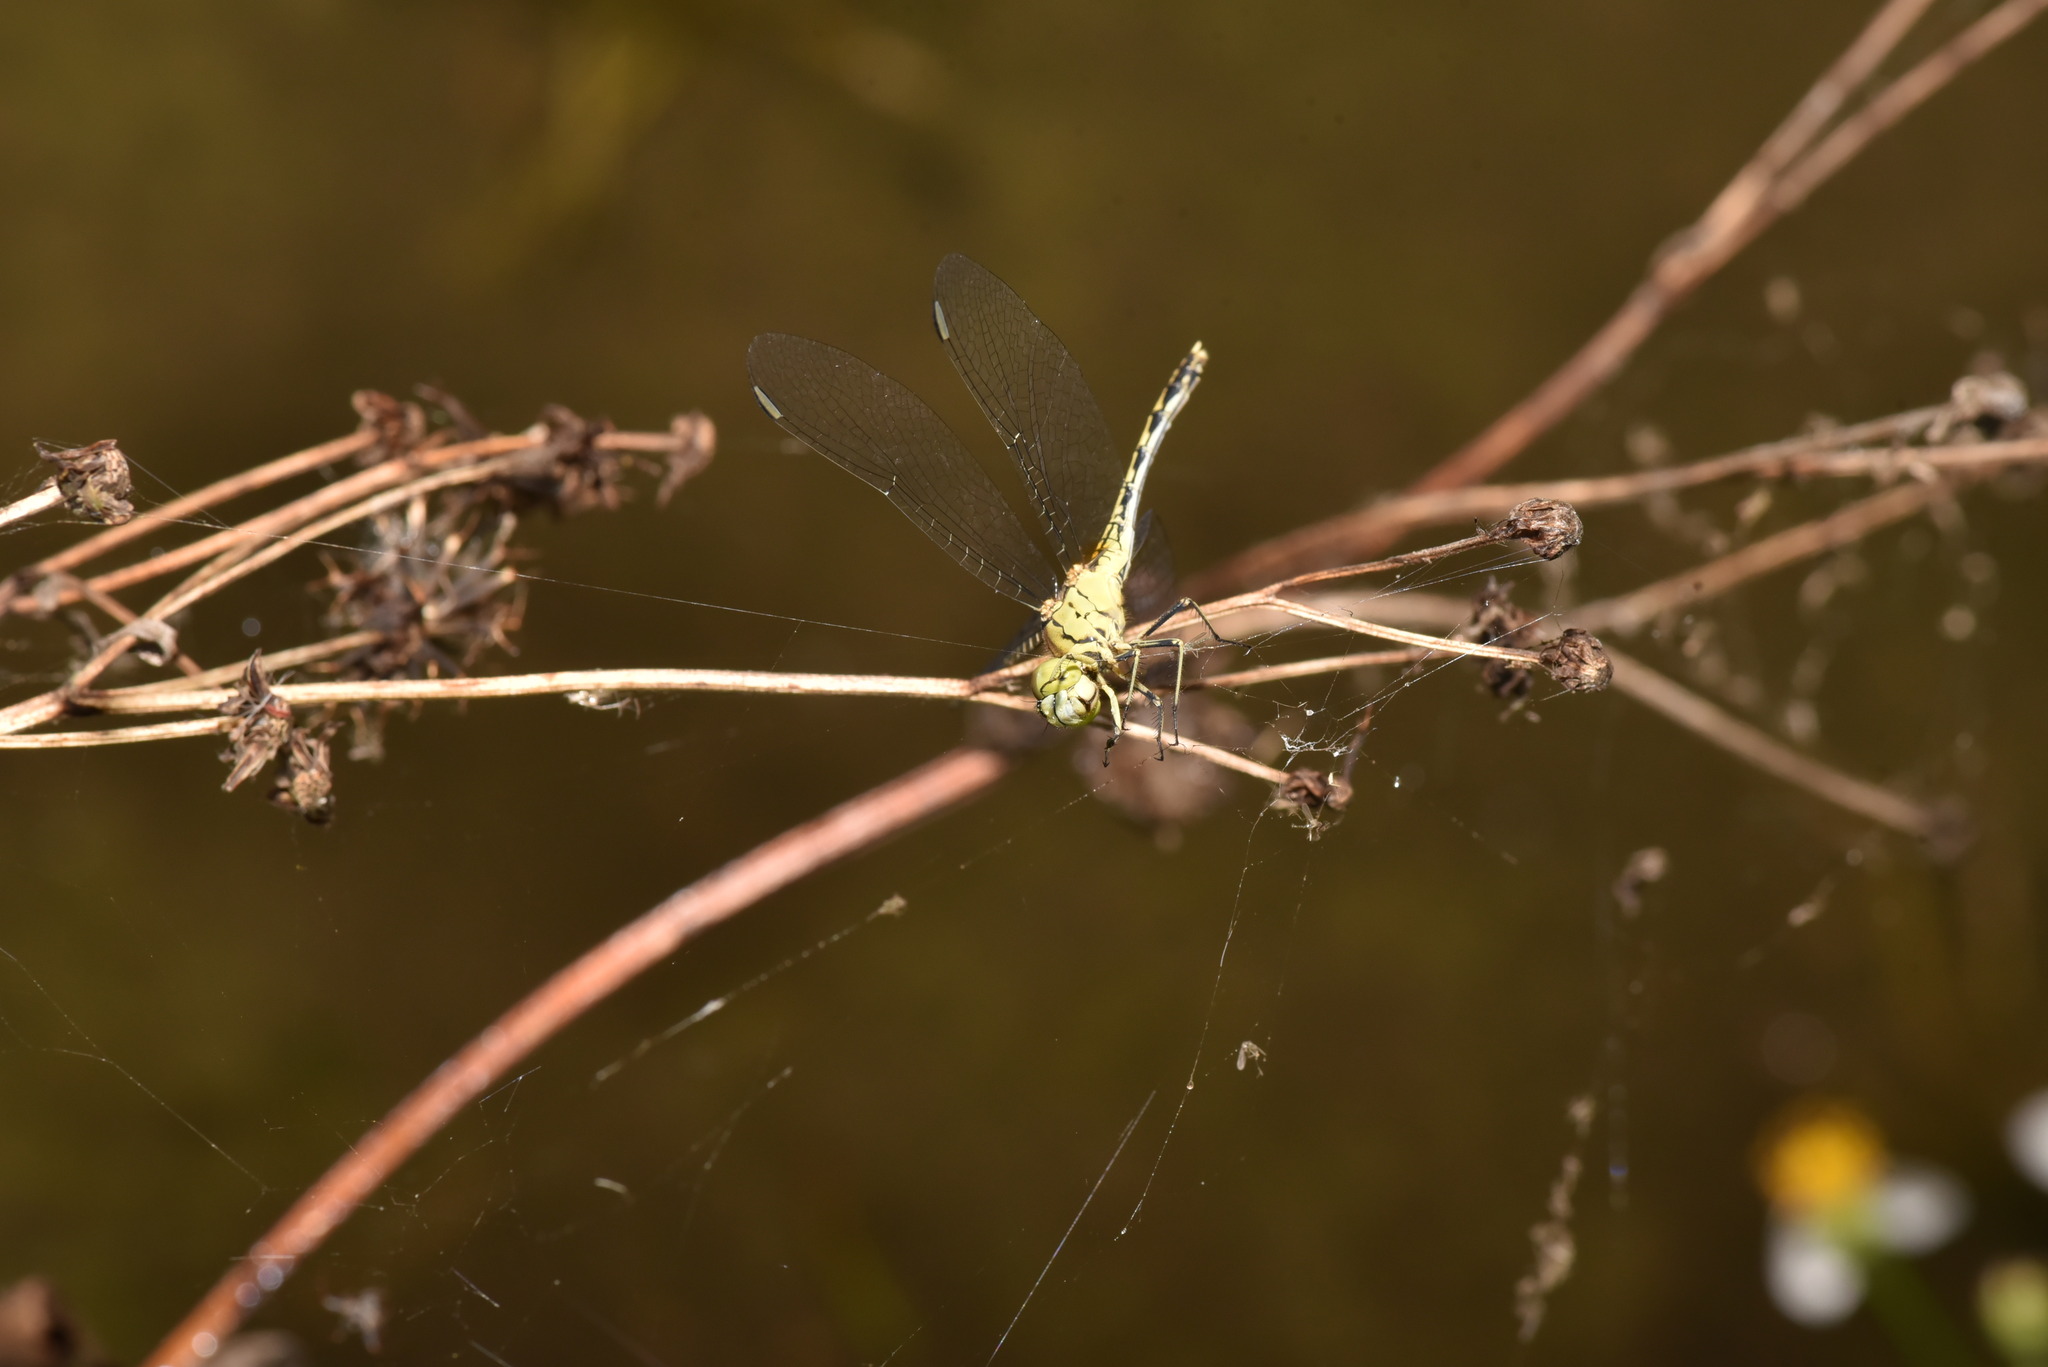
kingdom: Animalia
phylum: Arthropoda
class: Insecta
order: Odonata
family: Libellulidae
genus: Diplacodes
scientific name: Diplacodes trivialis
